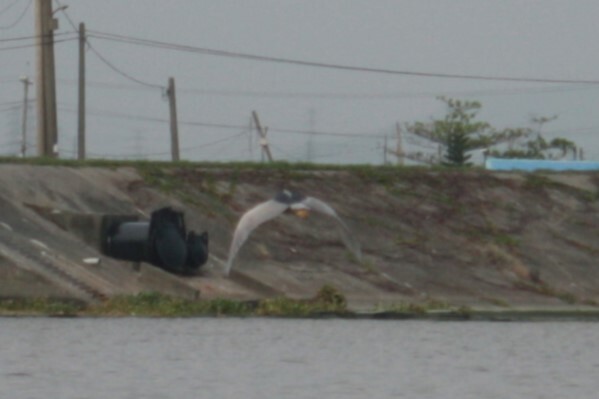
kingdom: Animalia
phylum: Chordata
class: Aves
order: Pelecaniformes
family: Ardeidae
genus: Nycticorax
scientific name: Nycticorax nycticorax
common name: Black-crowned night heron
